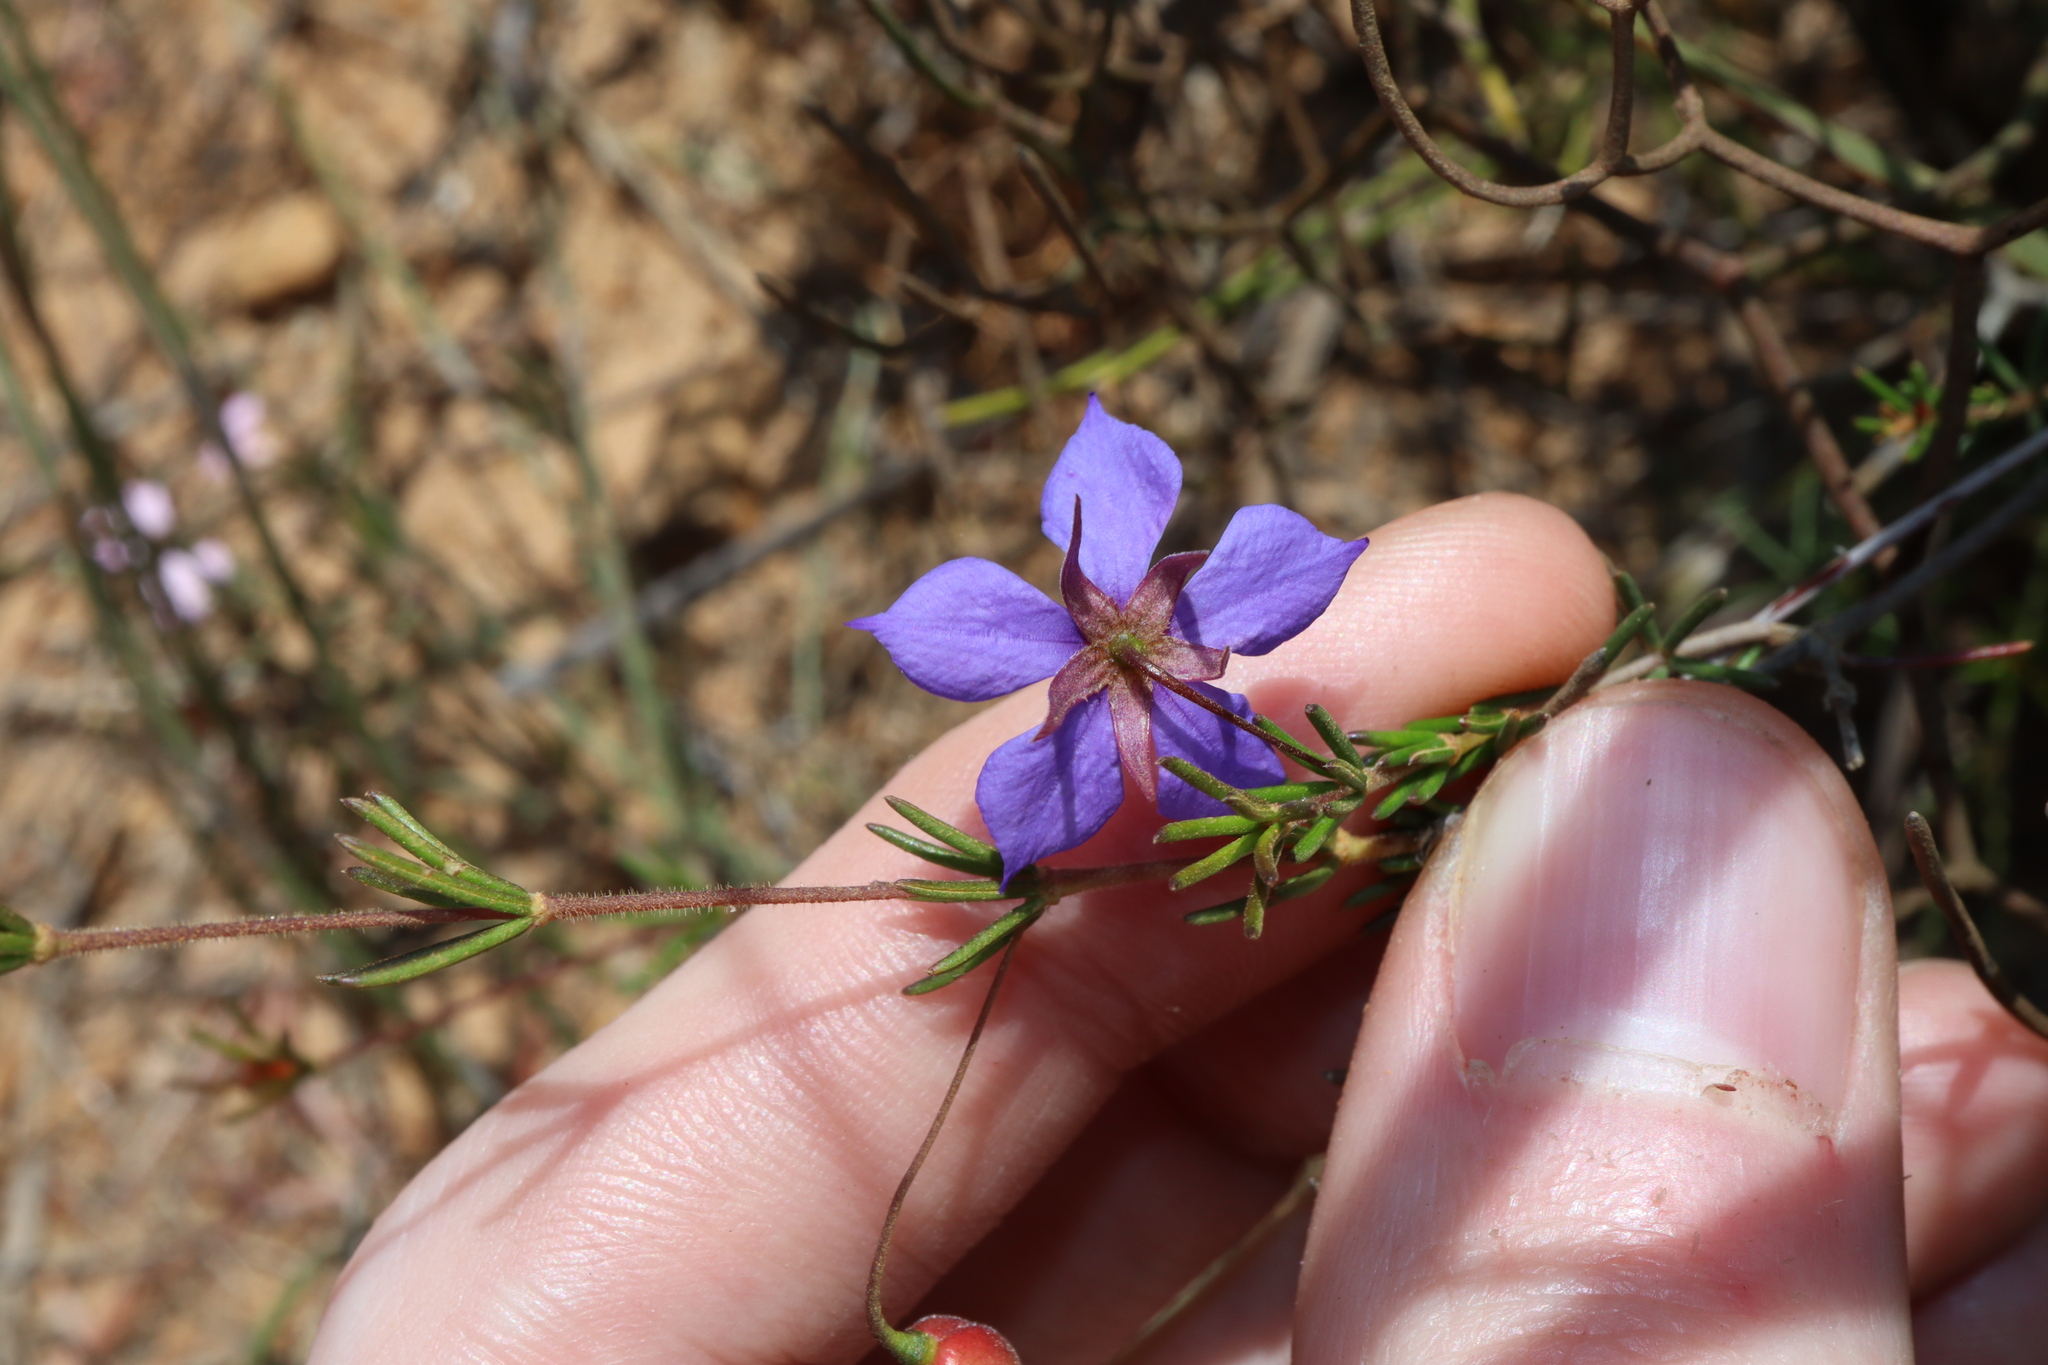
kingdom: Plantae
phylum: Tracheophyta
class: Magnoliopsida
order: Oxalidales
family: Elaeocarpaceae
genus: Platytheca
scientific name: Platytheca galioides
